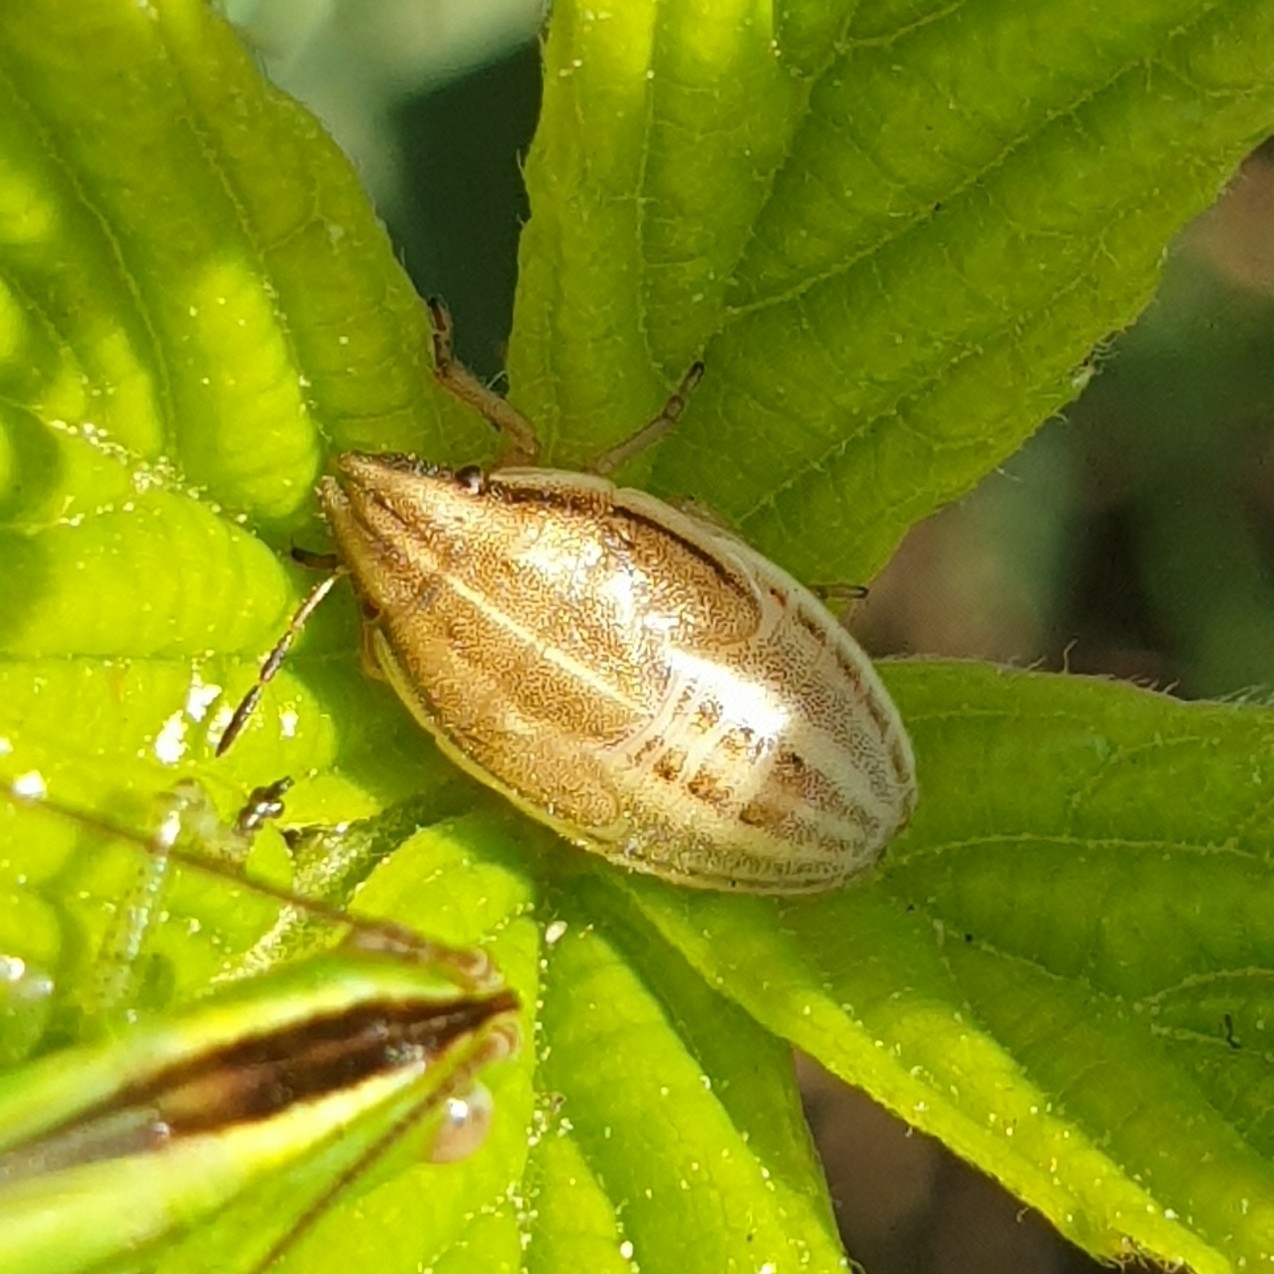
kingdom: Animalia
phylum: Arthropoda
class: Insecta
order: Hemiptera
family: Pentatomidae
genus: Aelia
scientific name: Aelia acuminata
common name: Bishop's mitre
